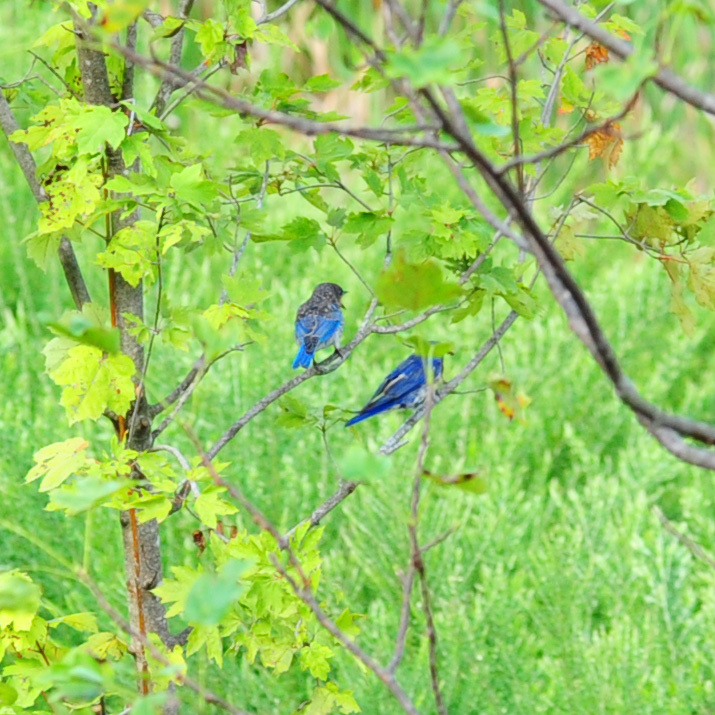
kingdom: Animalia
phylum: Chordata
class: Aves
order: Passeriformes
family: Turdidae
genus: Sialia
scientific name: Sialia sialis
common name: Eastern bluebird
